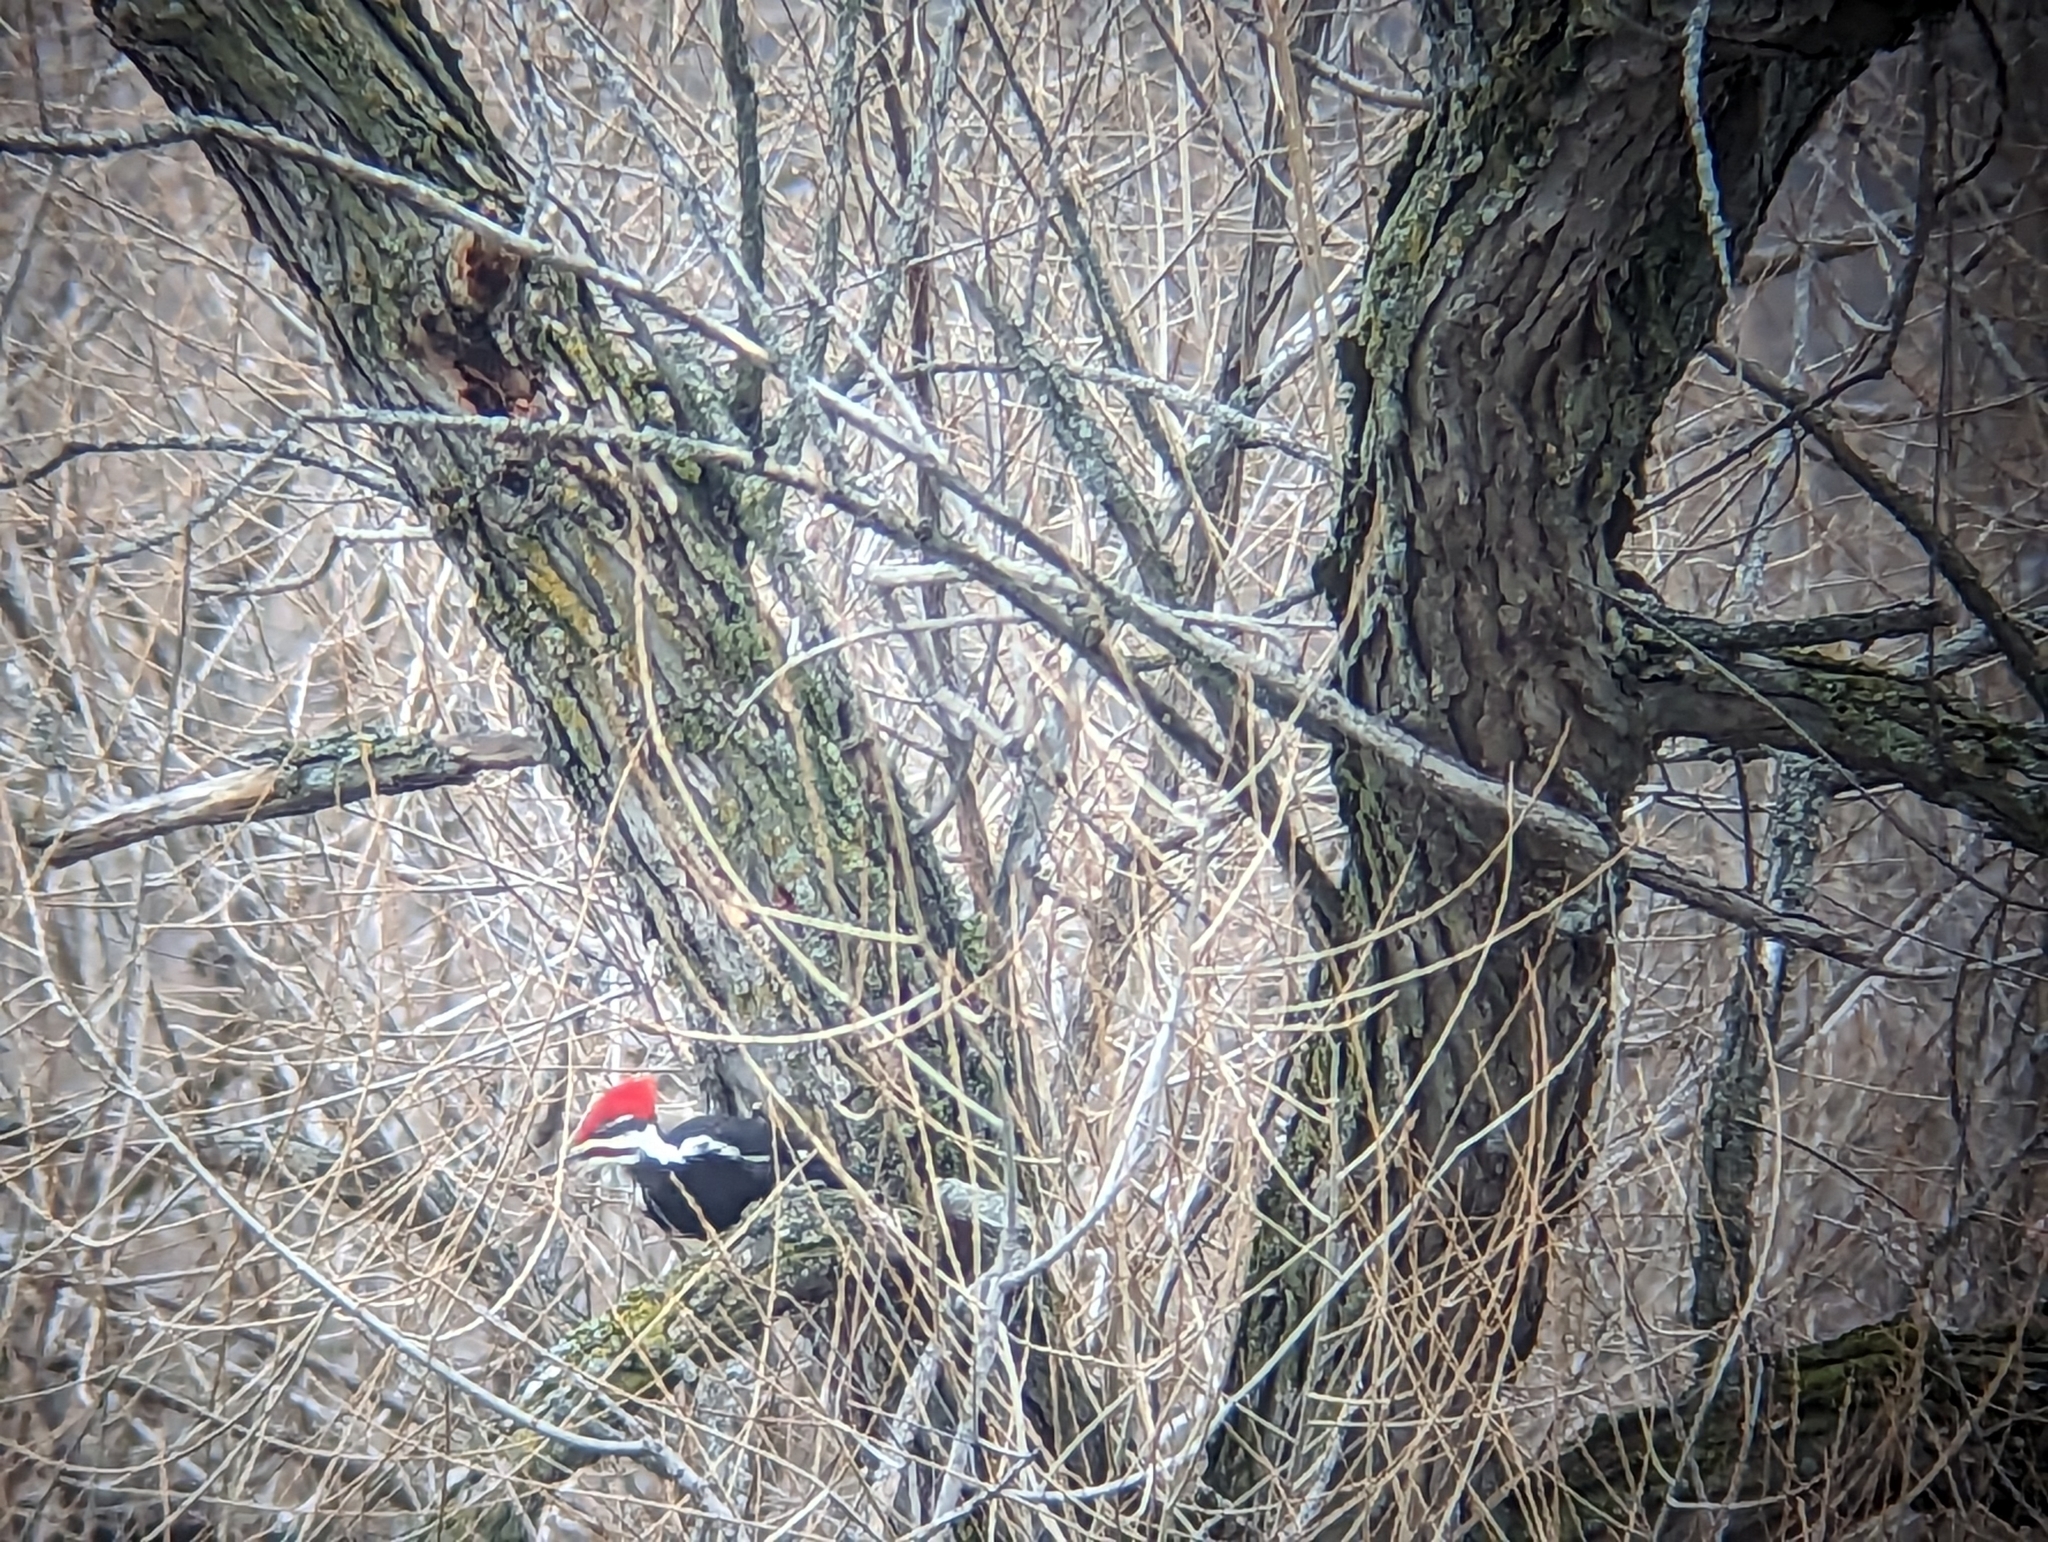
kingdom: Animalia
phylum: Chordata
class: Aves
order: Piciformes
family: Picidae
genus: Dryocopus
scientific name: Dryocopus pileatus
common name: Pileated woodpecker
